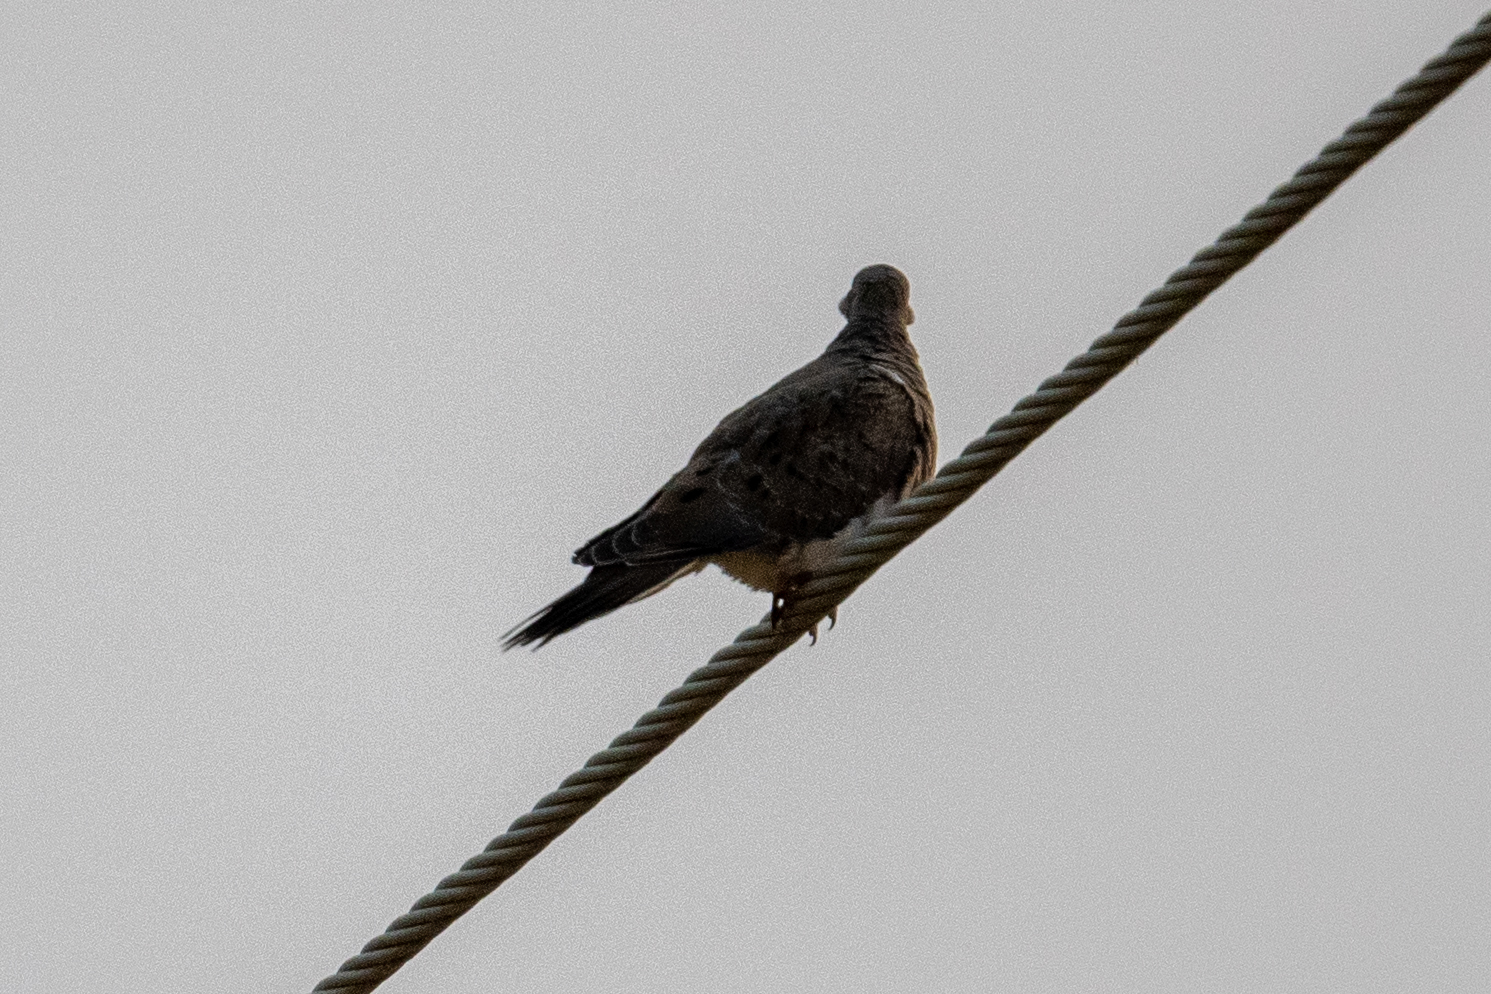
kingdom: Animalia
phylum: Chordata
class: Aves
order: Columbiformes
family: Columbidae
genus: Zenaida
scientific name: Zenaida macroura
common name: Mourning dove
